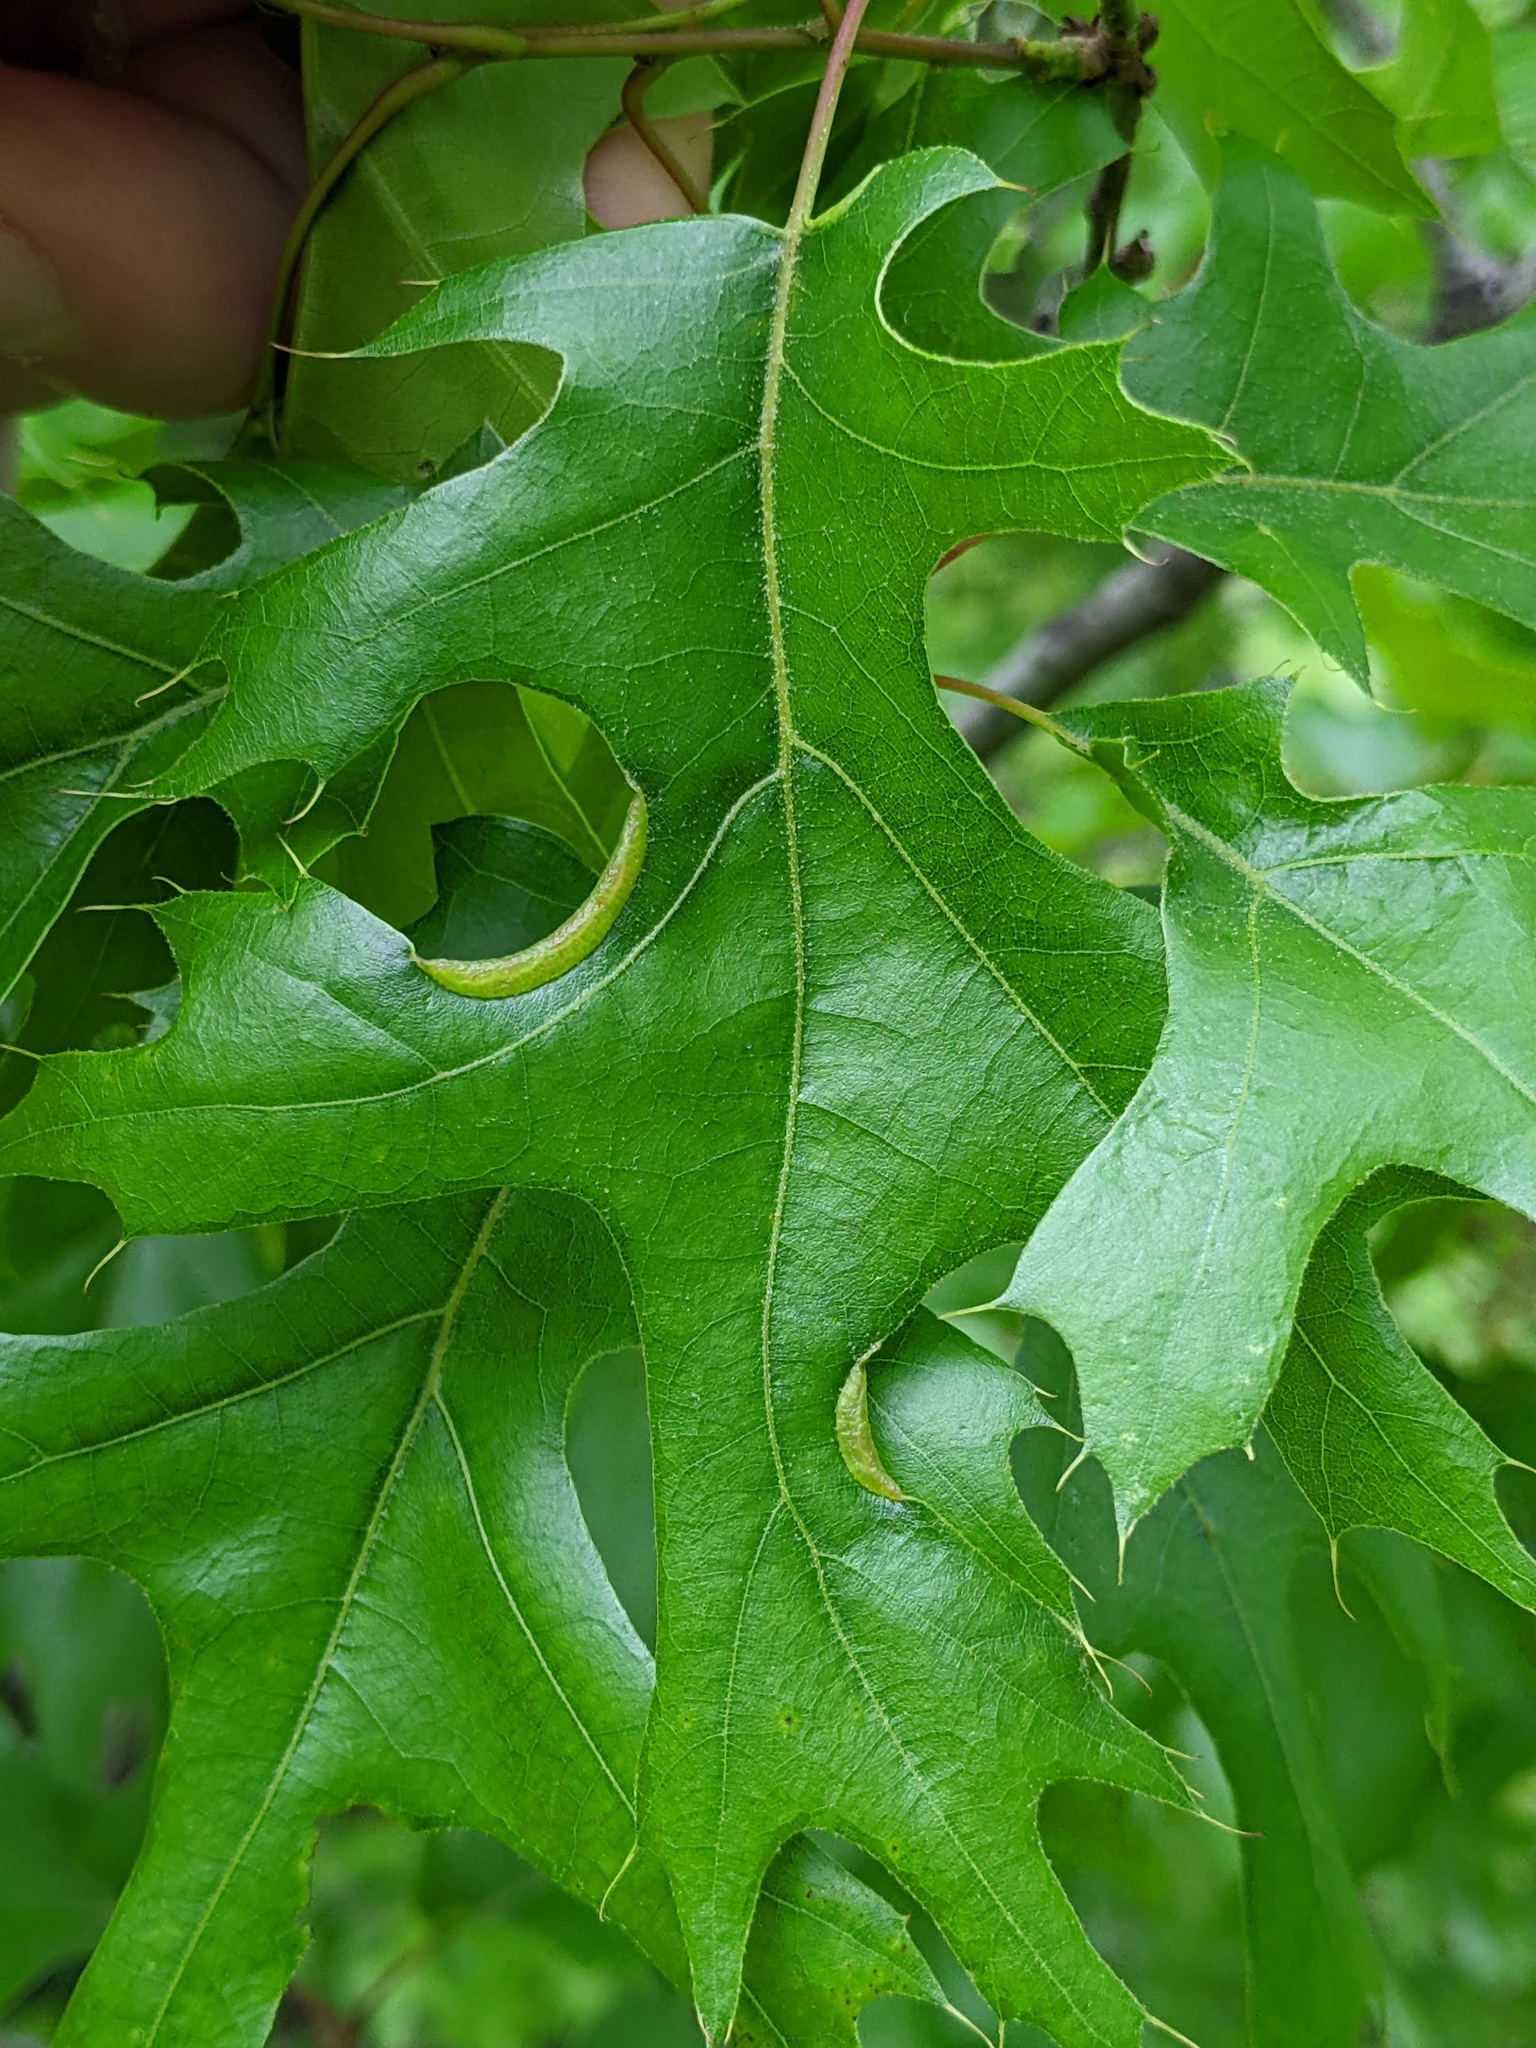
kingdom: Animalia
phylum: Arthropoda
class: Insecta
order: Diptera
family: Cecidomyiidae
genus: Macrodiplosis
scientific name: Macrodiplosis erubescens
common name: Marginal leaf fold gall midge
